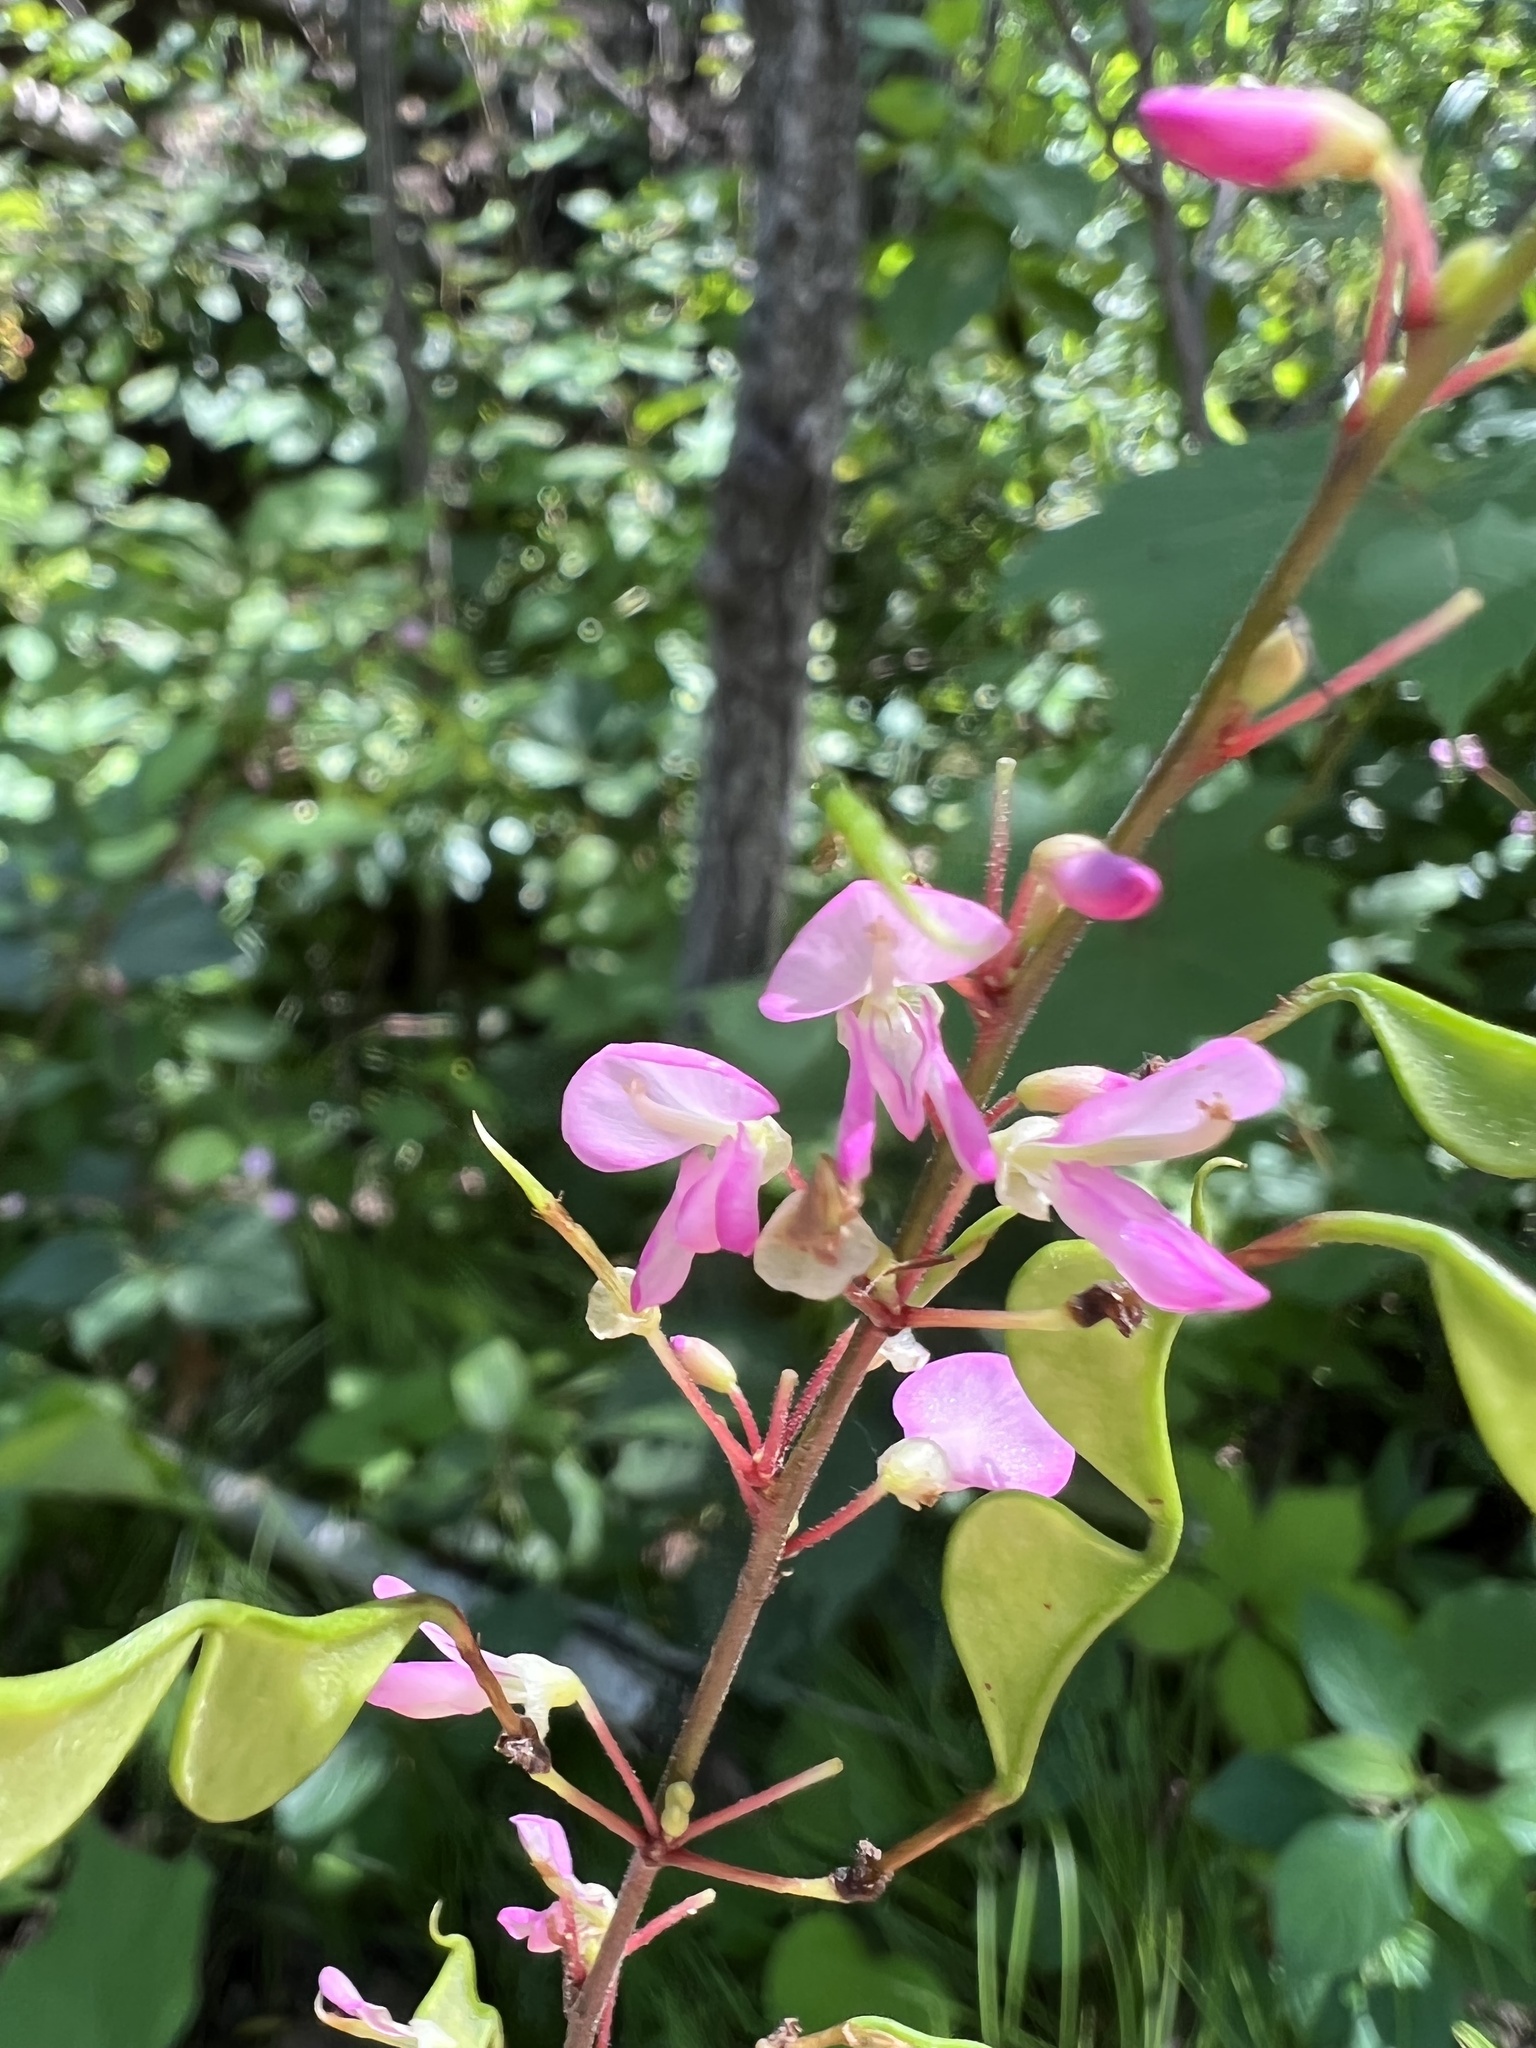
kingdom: Plantae
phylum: Tracheophyta
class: Magnoliopsida
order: Fabales
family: Fabaceae
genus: Hylodesmum
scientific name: Hylodesmum glutinosum
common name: Clustered-leaved tick-trefoil
